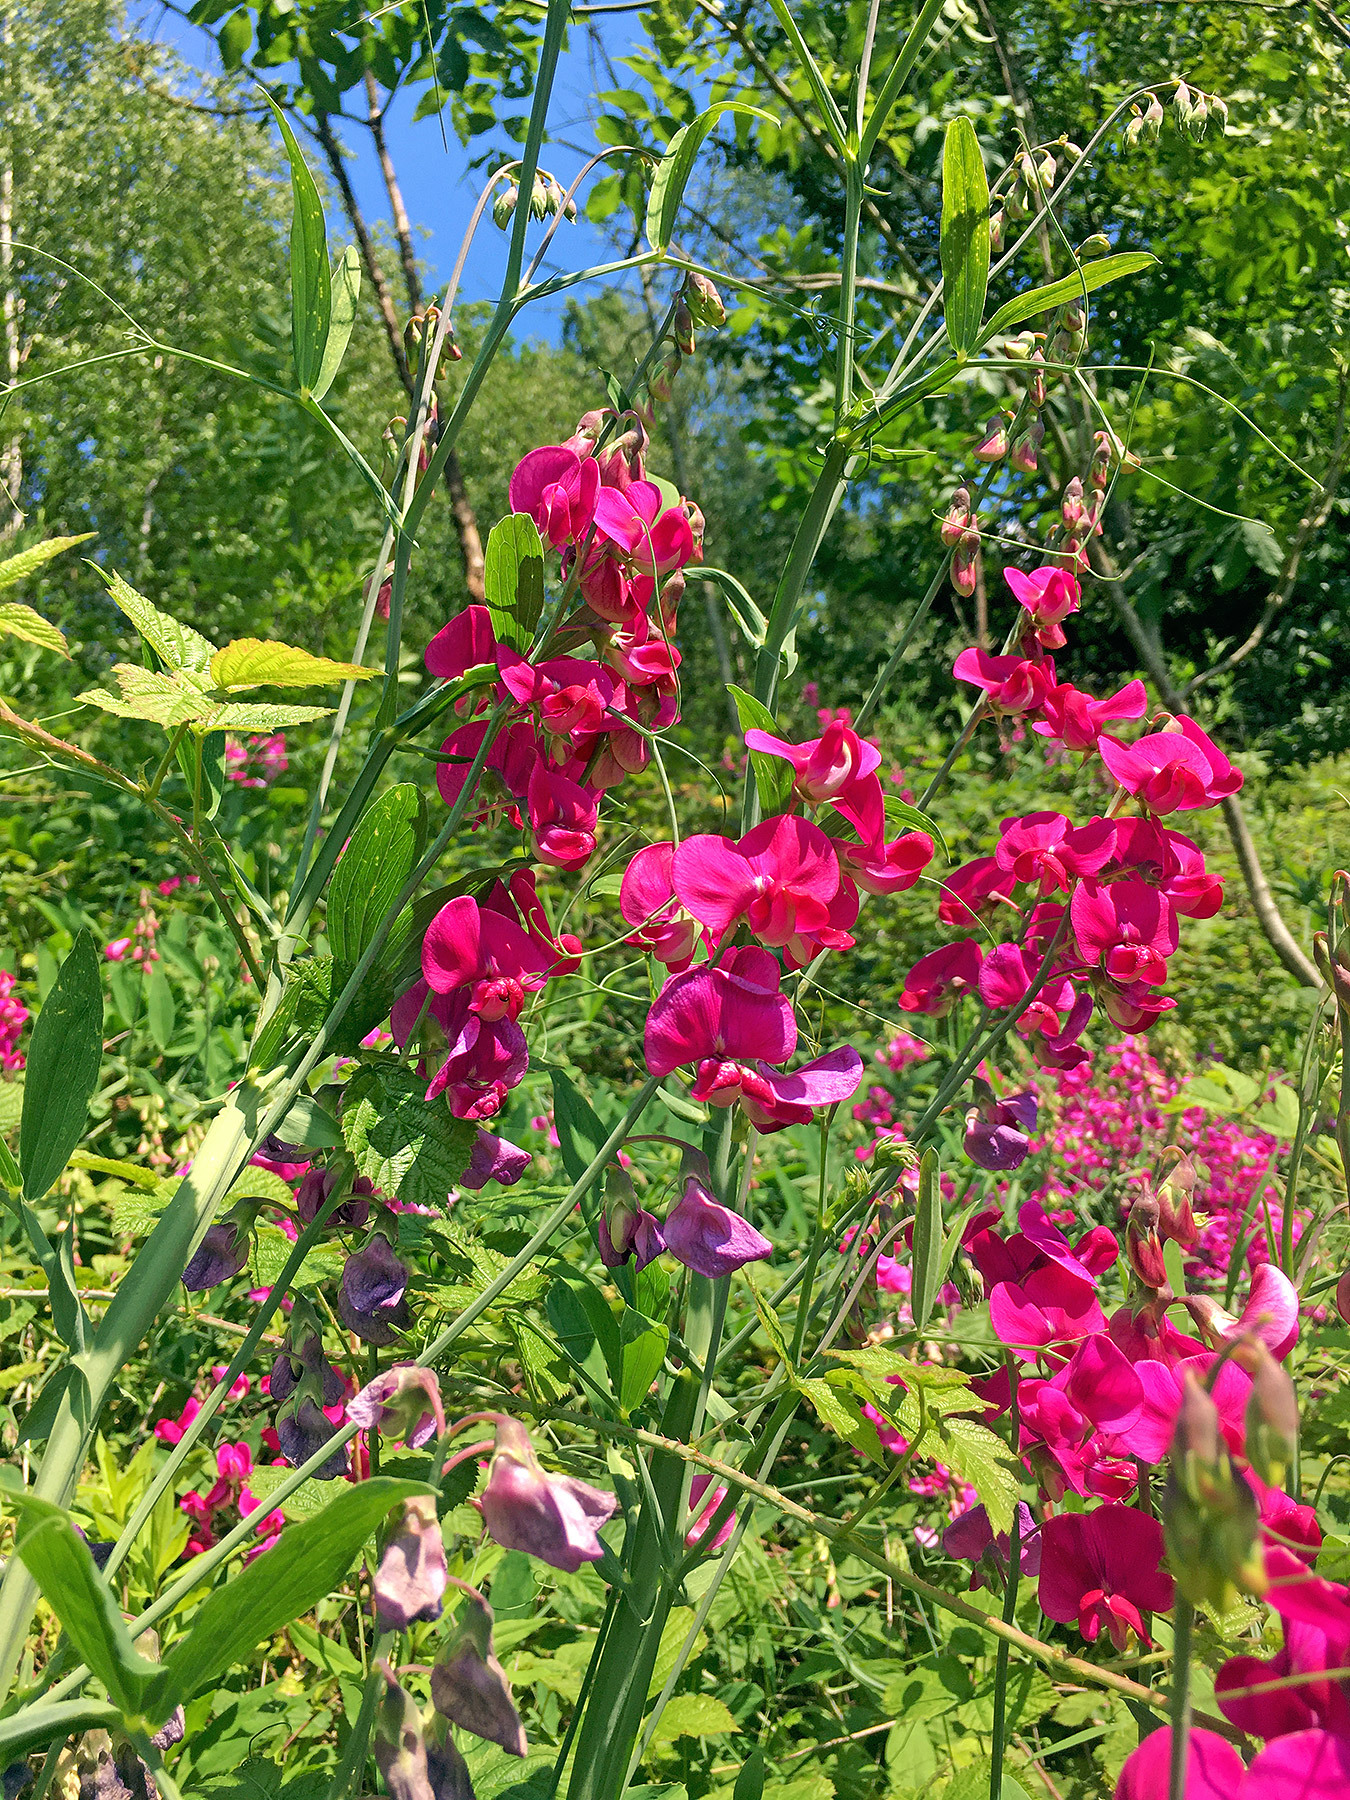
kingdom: Plantae
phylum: Tracheophyta
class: Magnoliopsida
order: Fabales
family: Fabaceae
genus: Lathyrus
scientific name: Lathyrus latifolius
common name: Perennial pea
